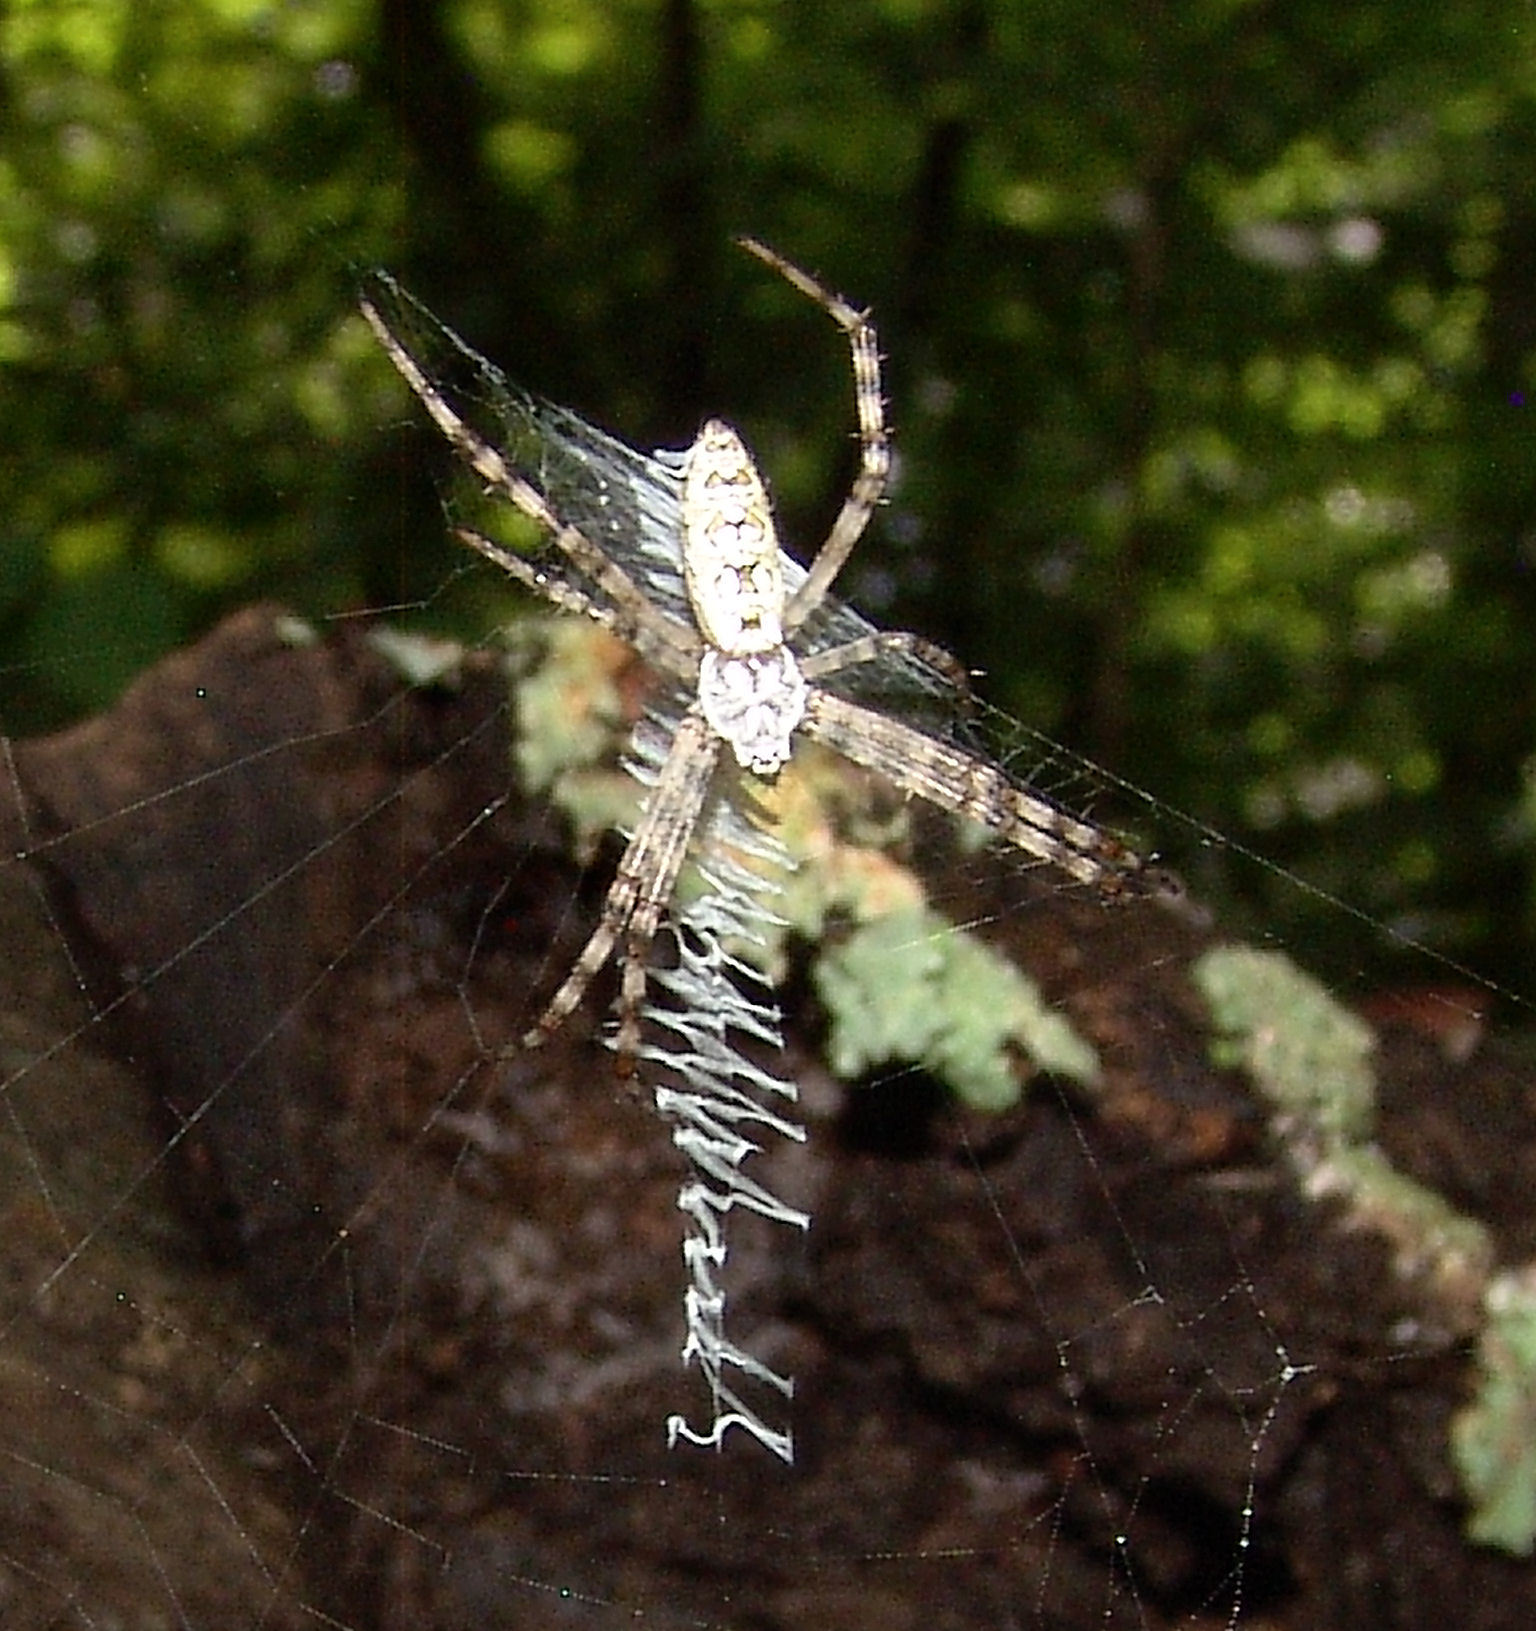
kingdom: Animalia
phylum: Arthropoda
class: Arachnida
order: Araneae
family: Araneidae
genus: Argiope
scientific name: Argiope aurantia
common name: Orb weavers
